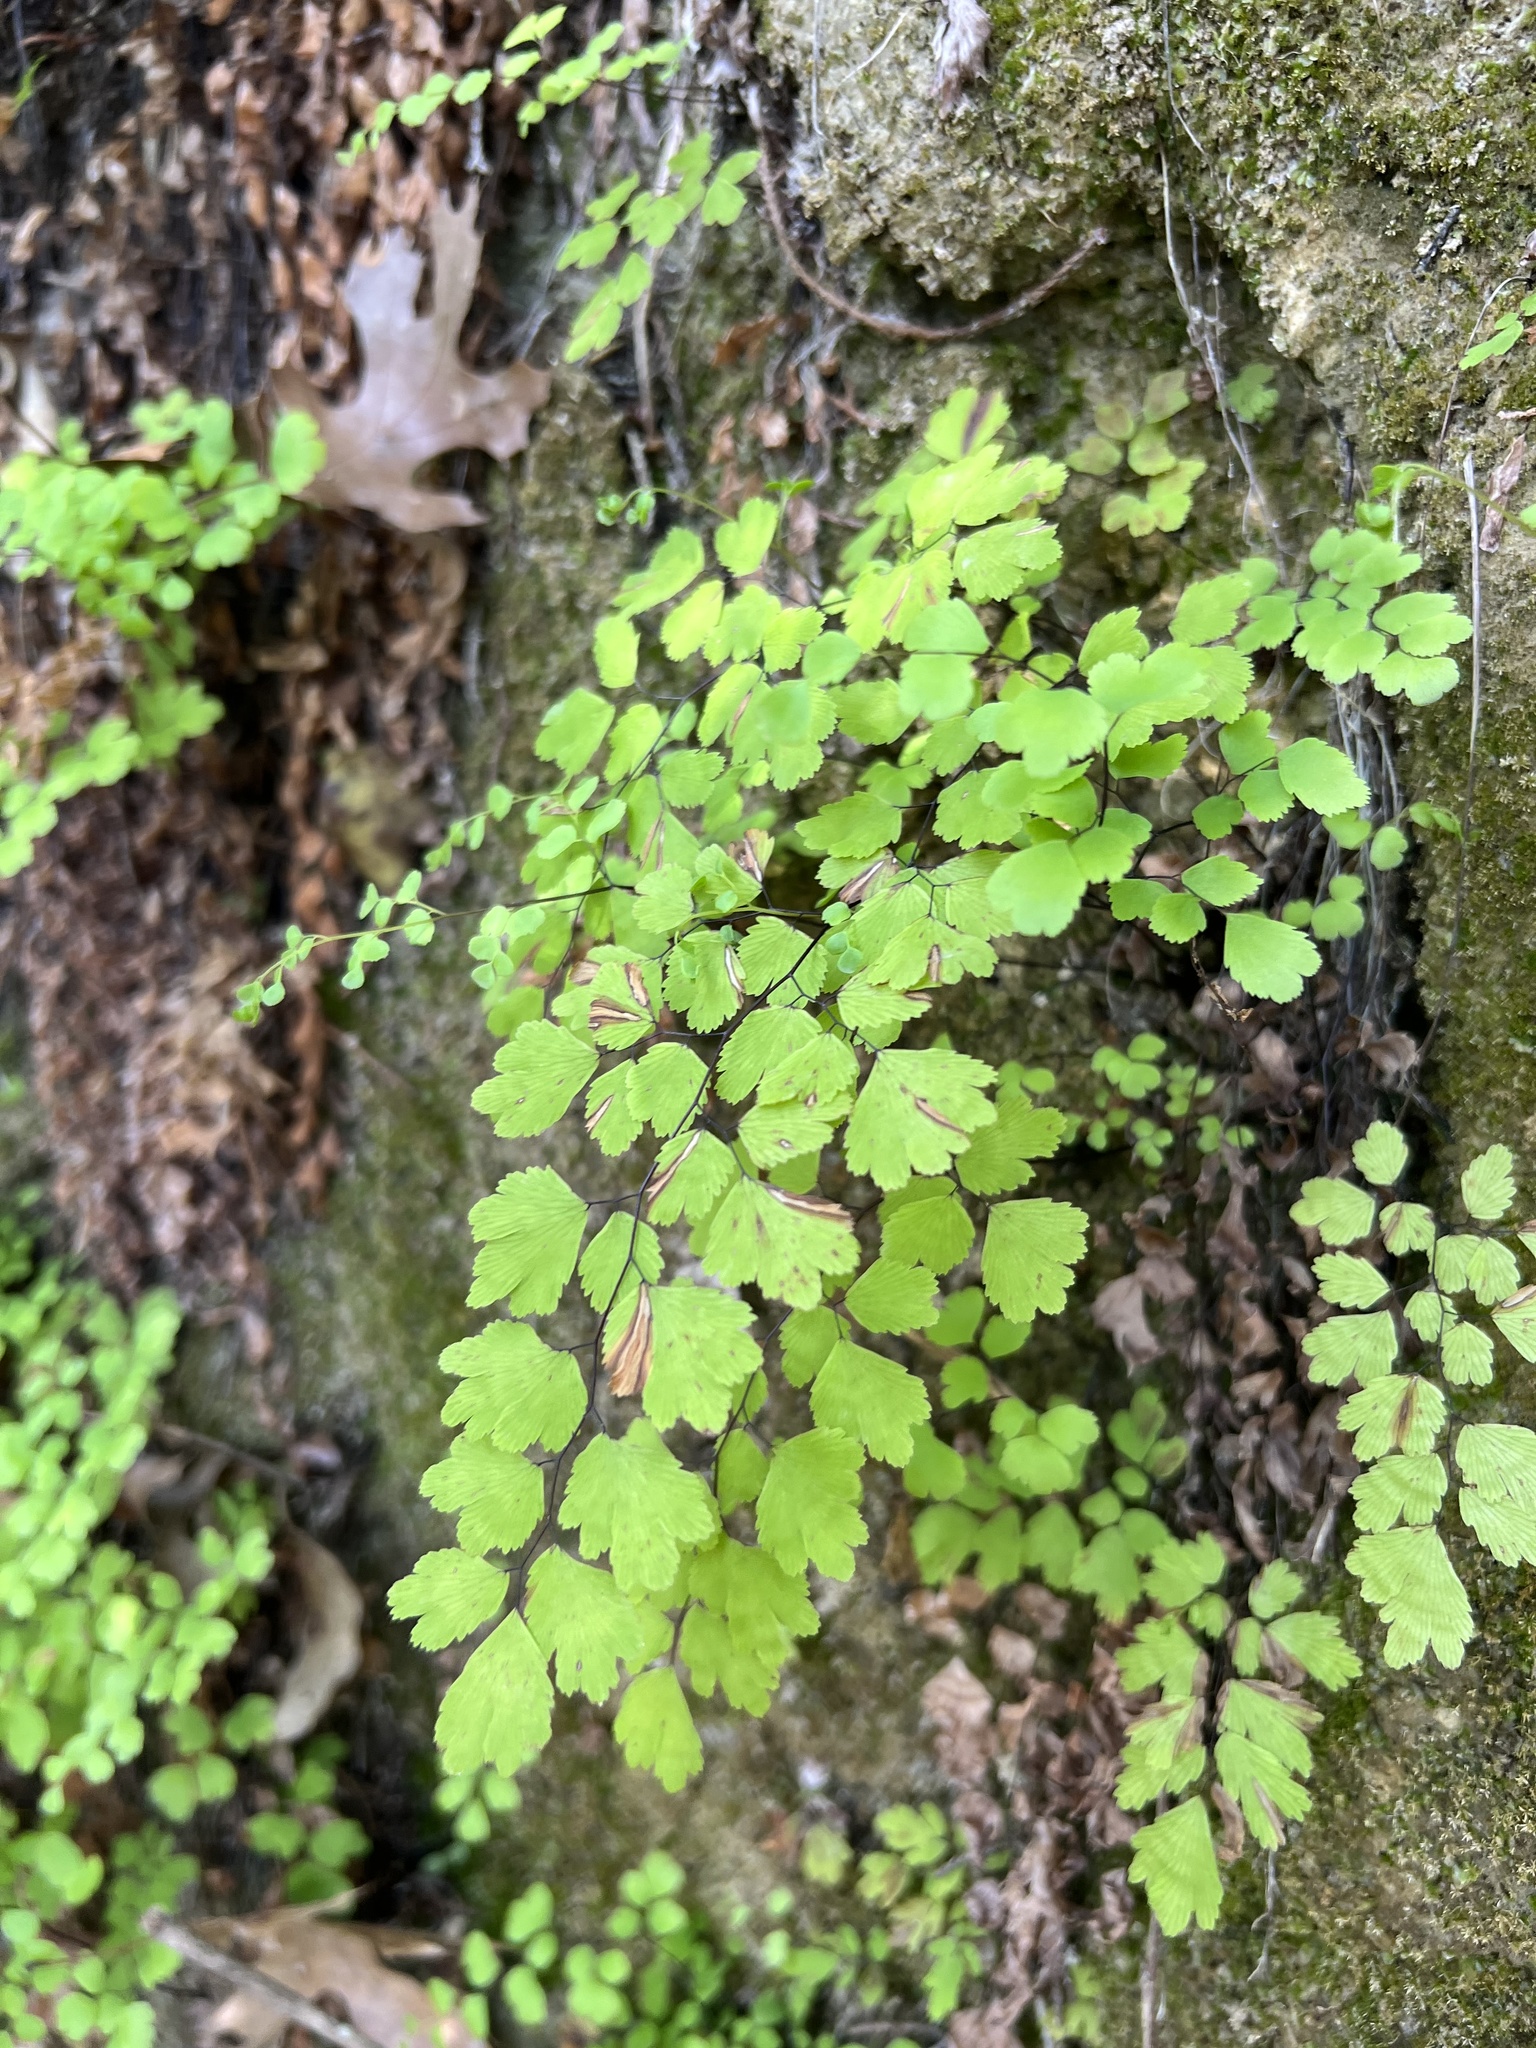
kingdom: Plantae
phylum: Tracheophyta
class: Polypodiopsida
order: Polypodiales
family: Pteridaceae
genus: Adiantum
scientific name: Adiantum capillus-veneris
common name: Maidenhair fern
